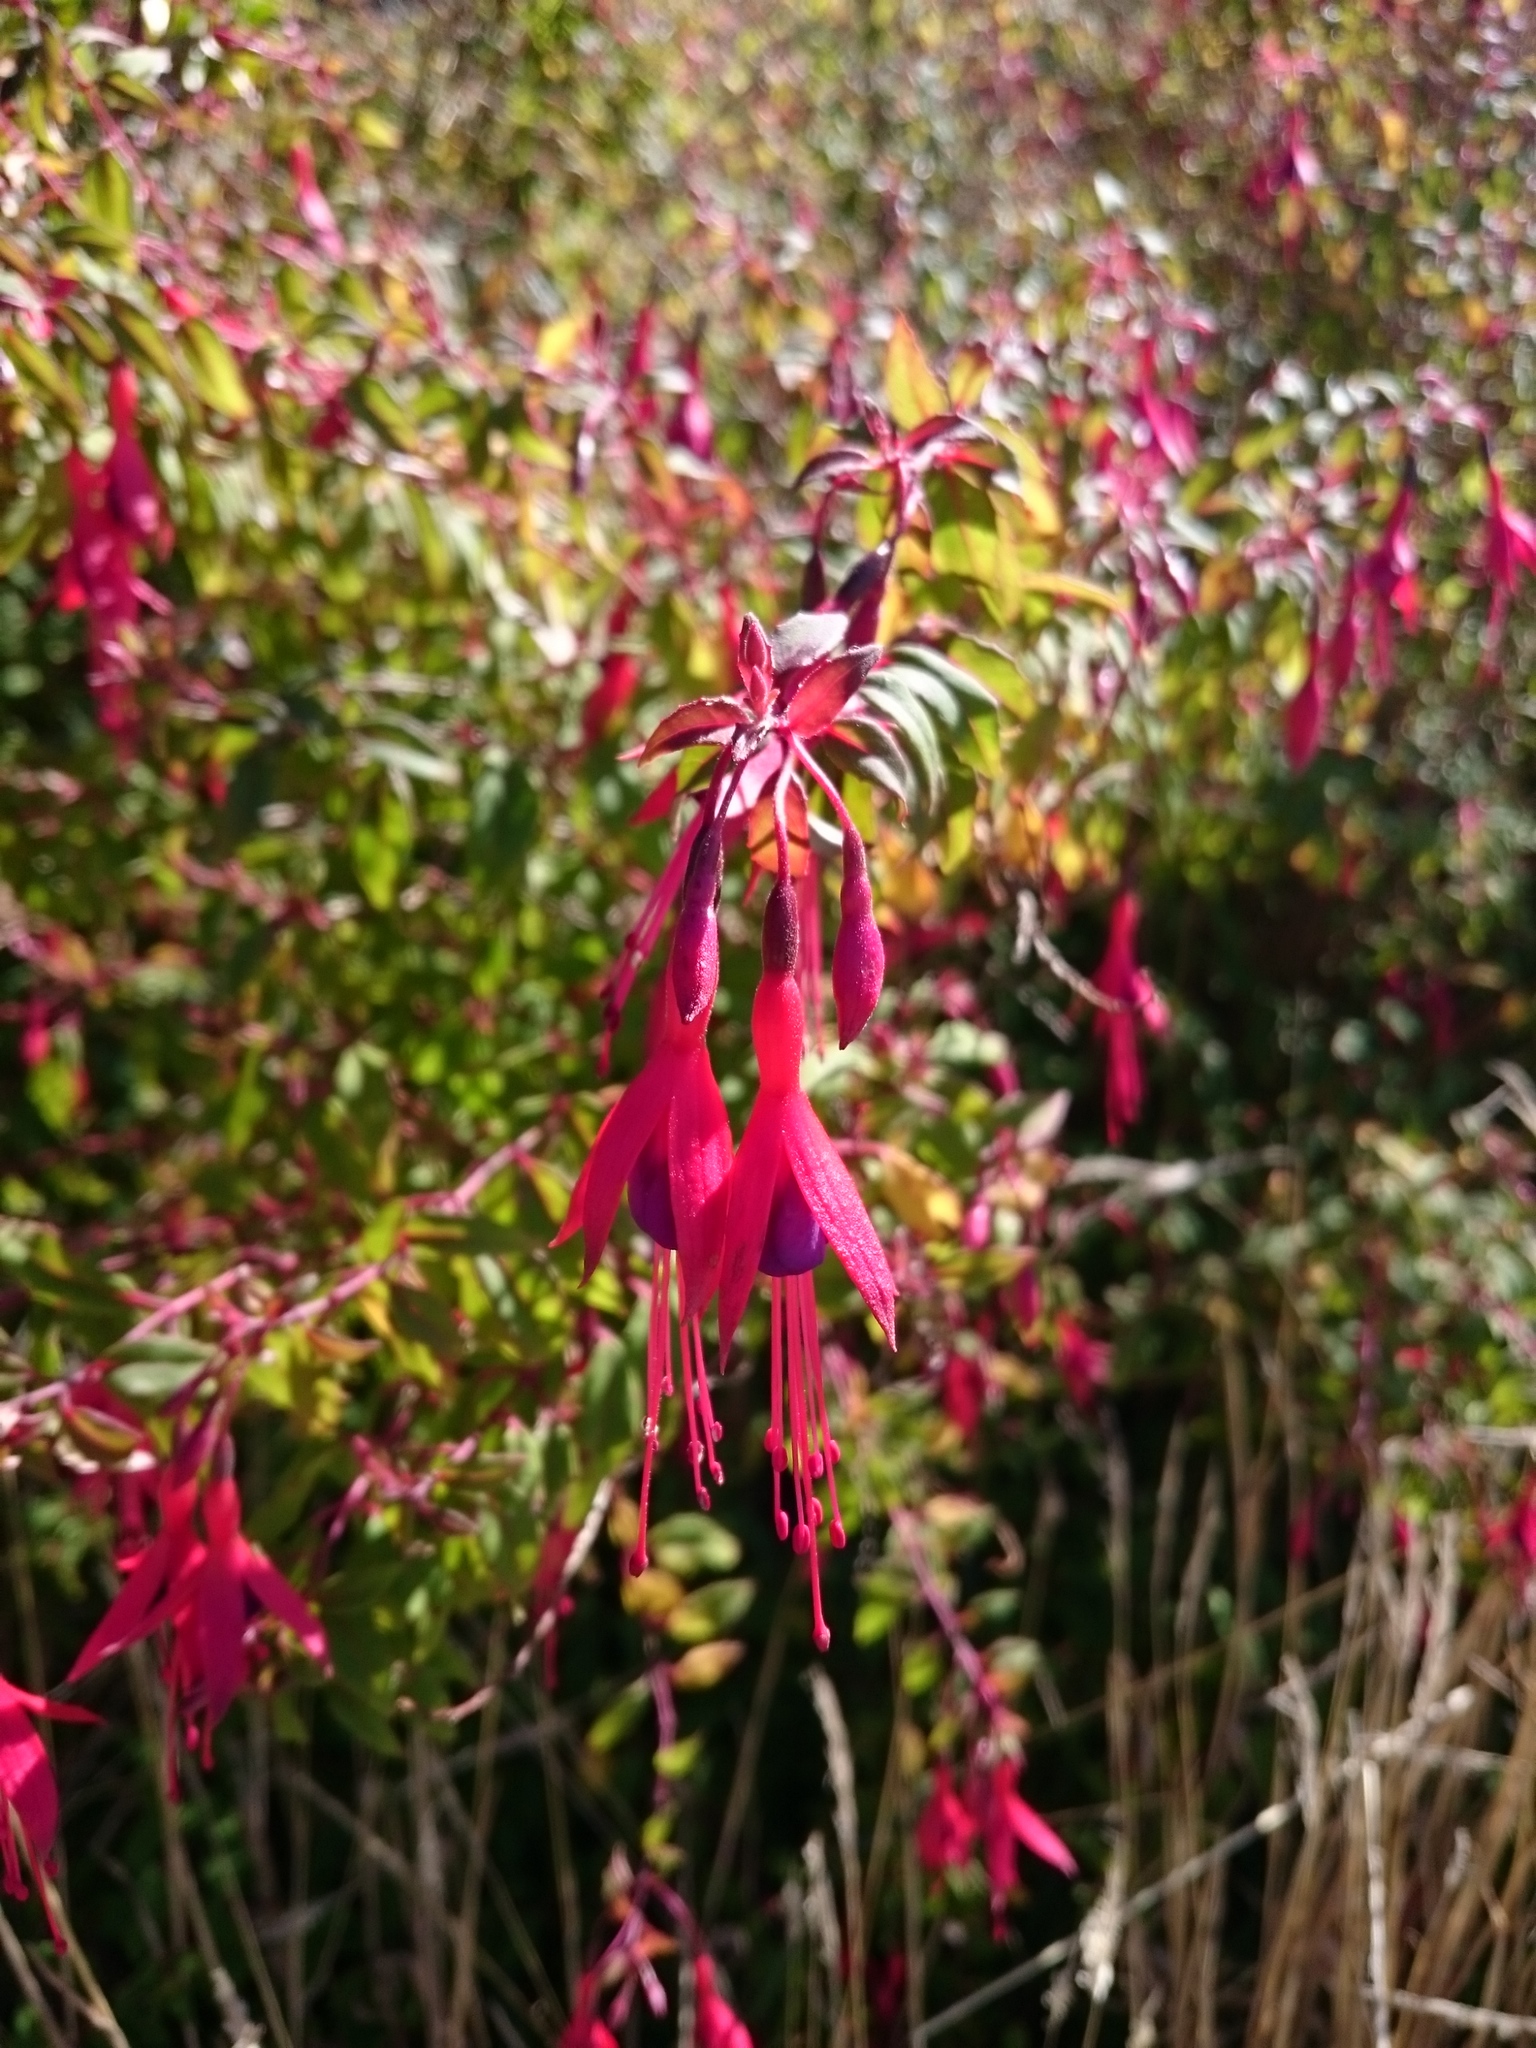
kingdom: Plantae
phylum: Tracheophyta
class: Magnoliopsida
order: Myrtales
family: Onagraceae
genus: Fuchsia
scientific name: Fuchsia magellanica
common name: Hardy fuchsia
